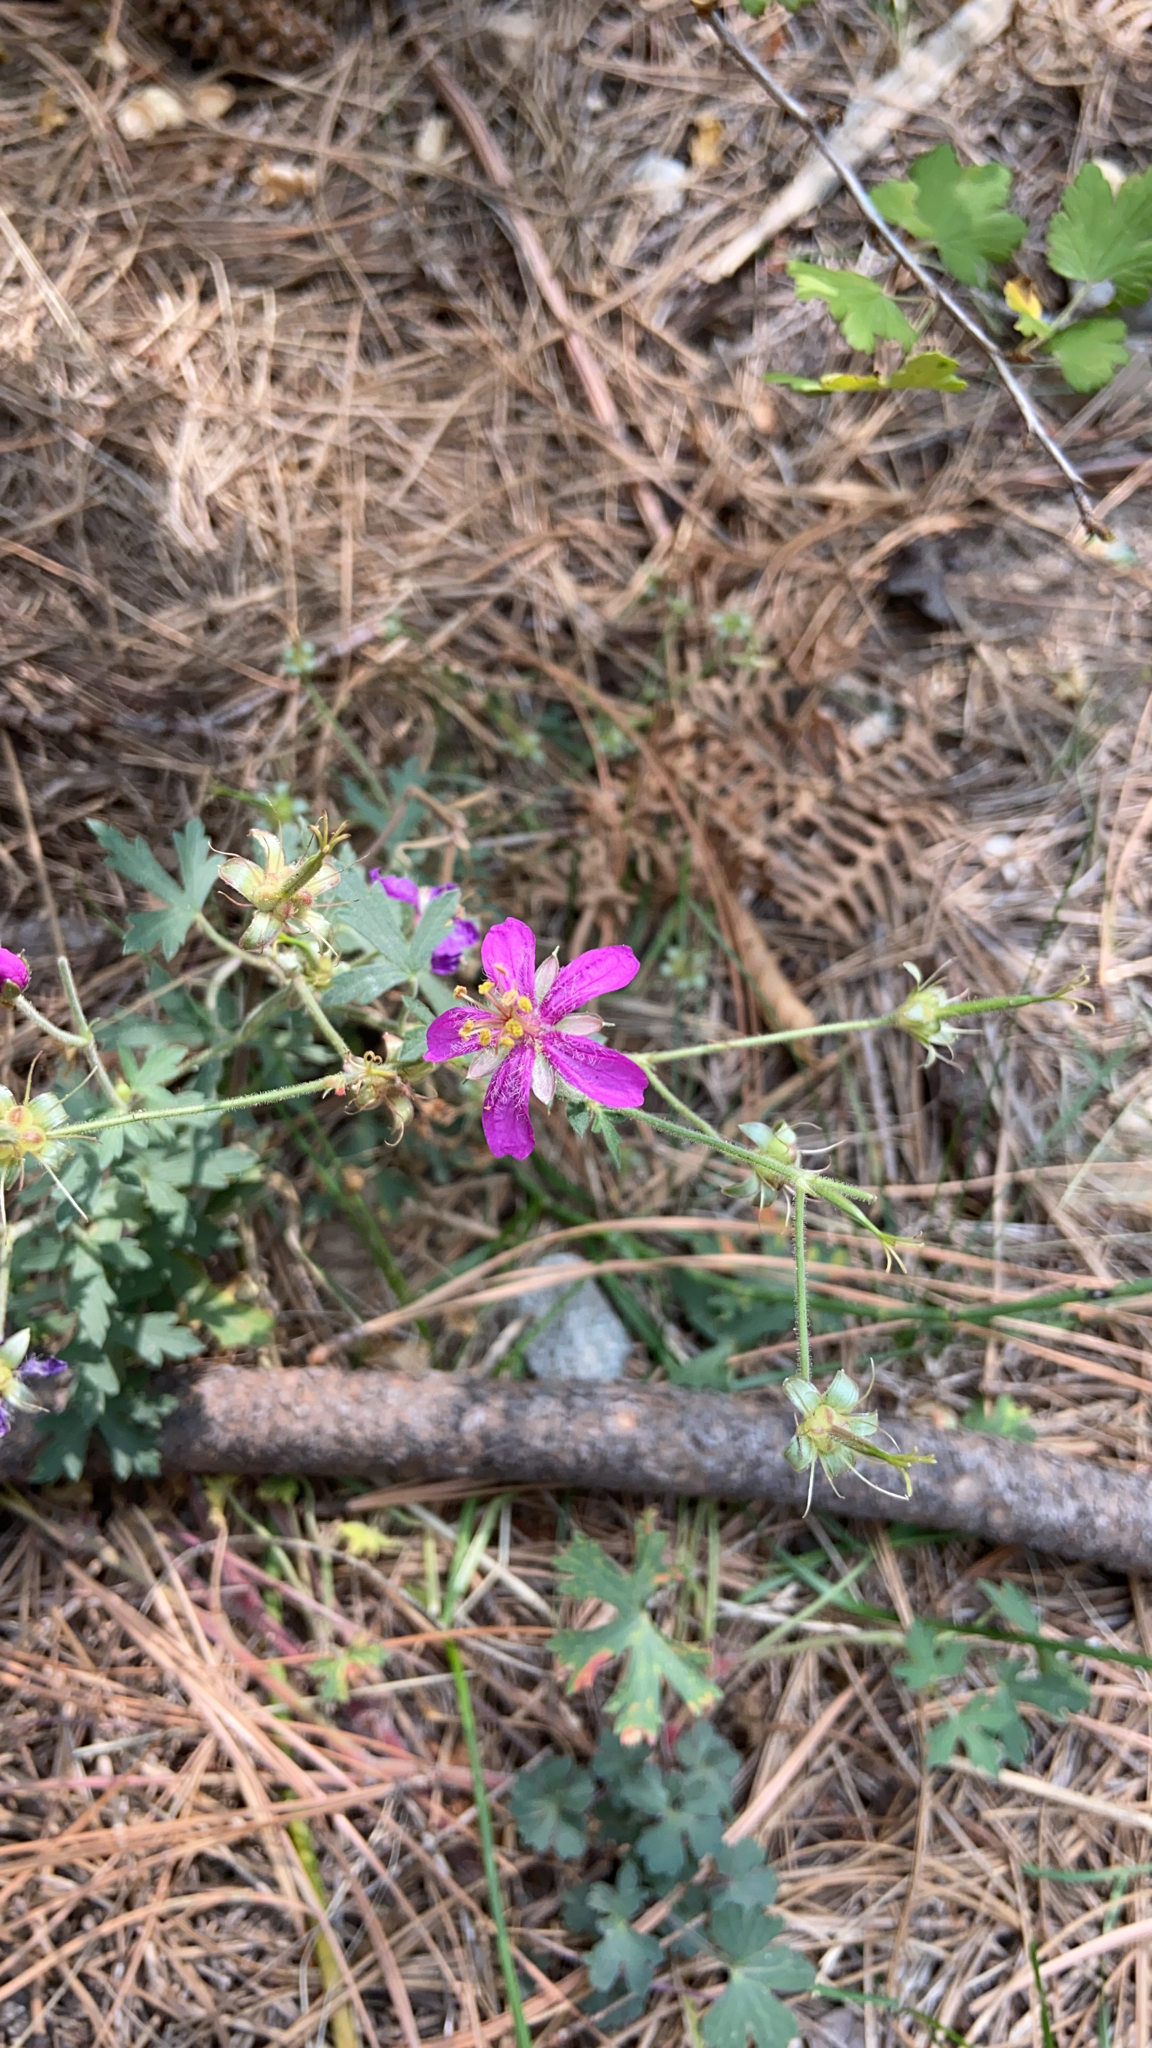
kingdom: Plantae
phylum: Tracheophyta
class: Magnoliopsida
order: Geraniales
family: Geraniaceae
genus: Geranium
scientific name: Geranium caespitosum
